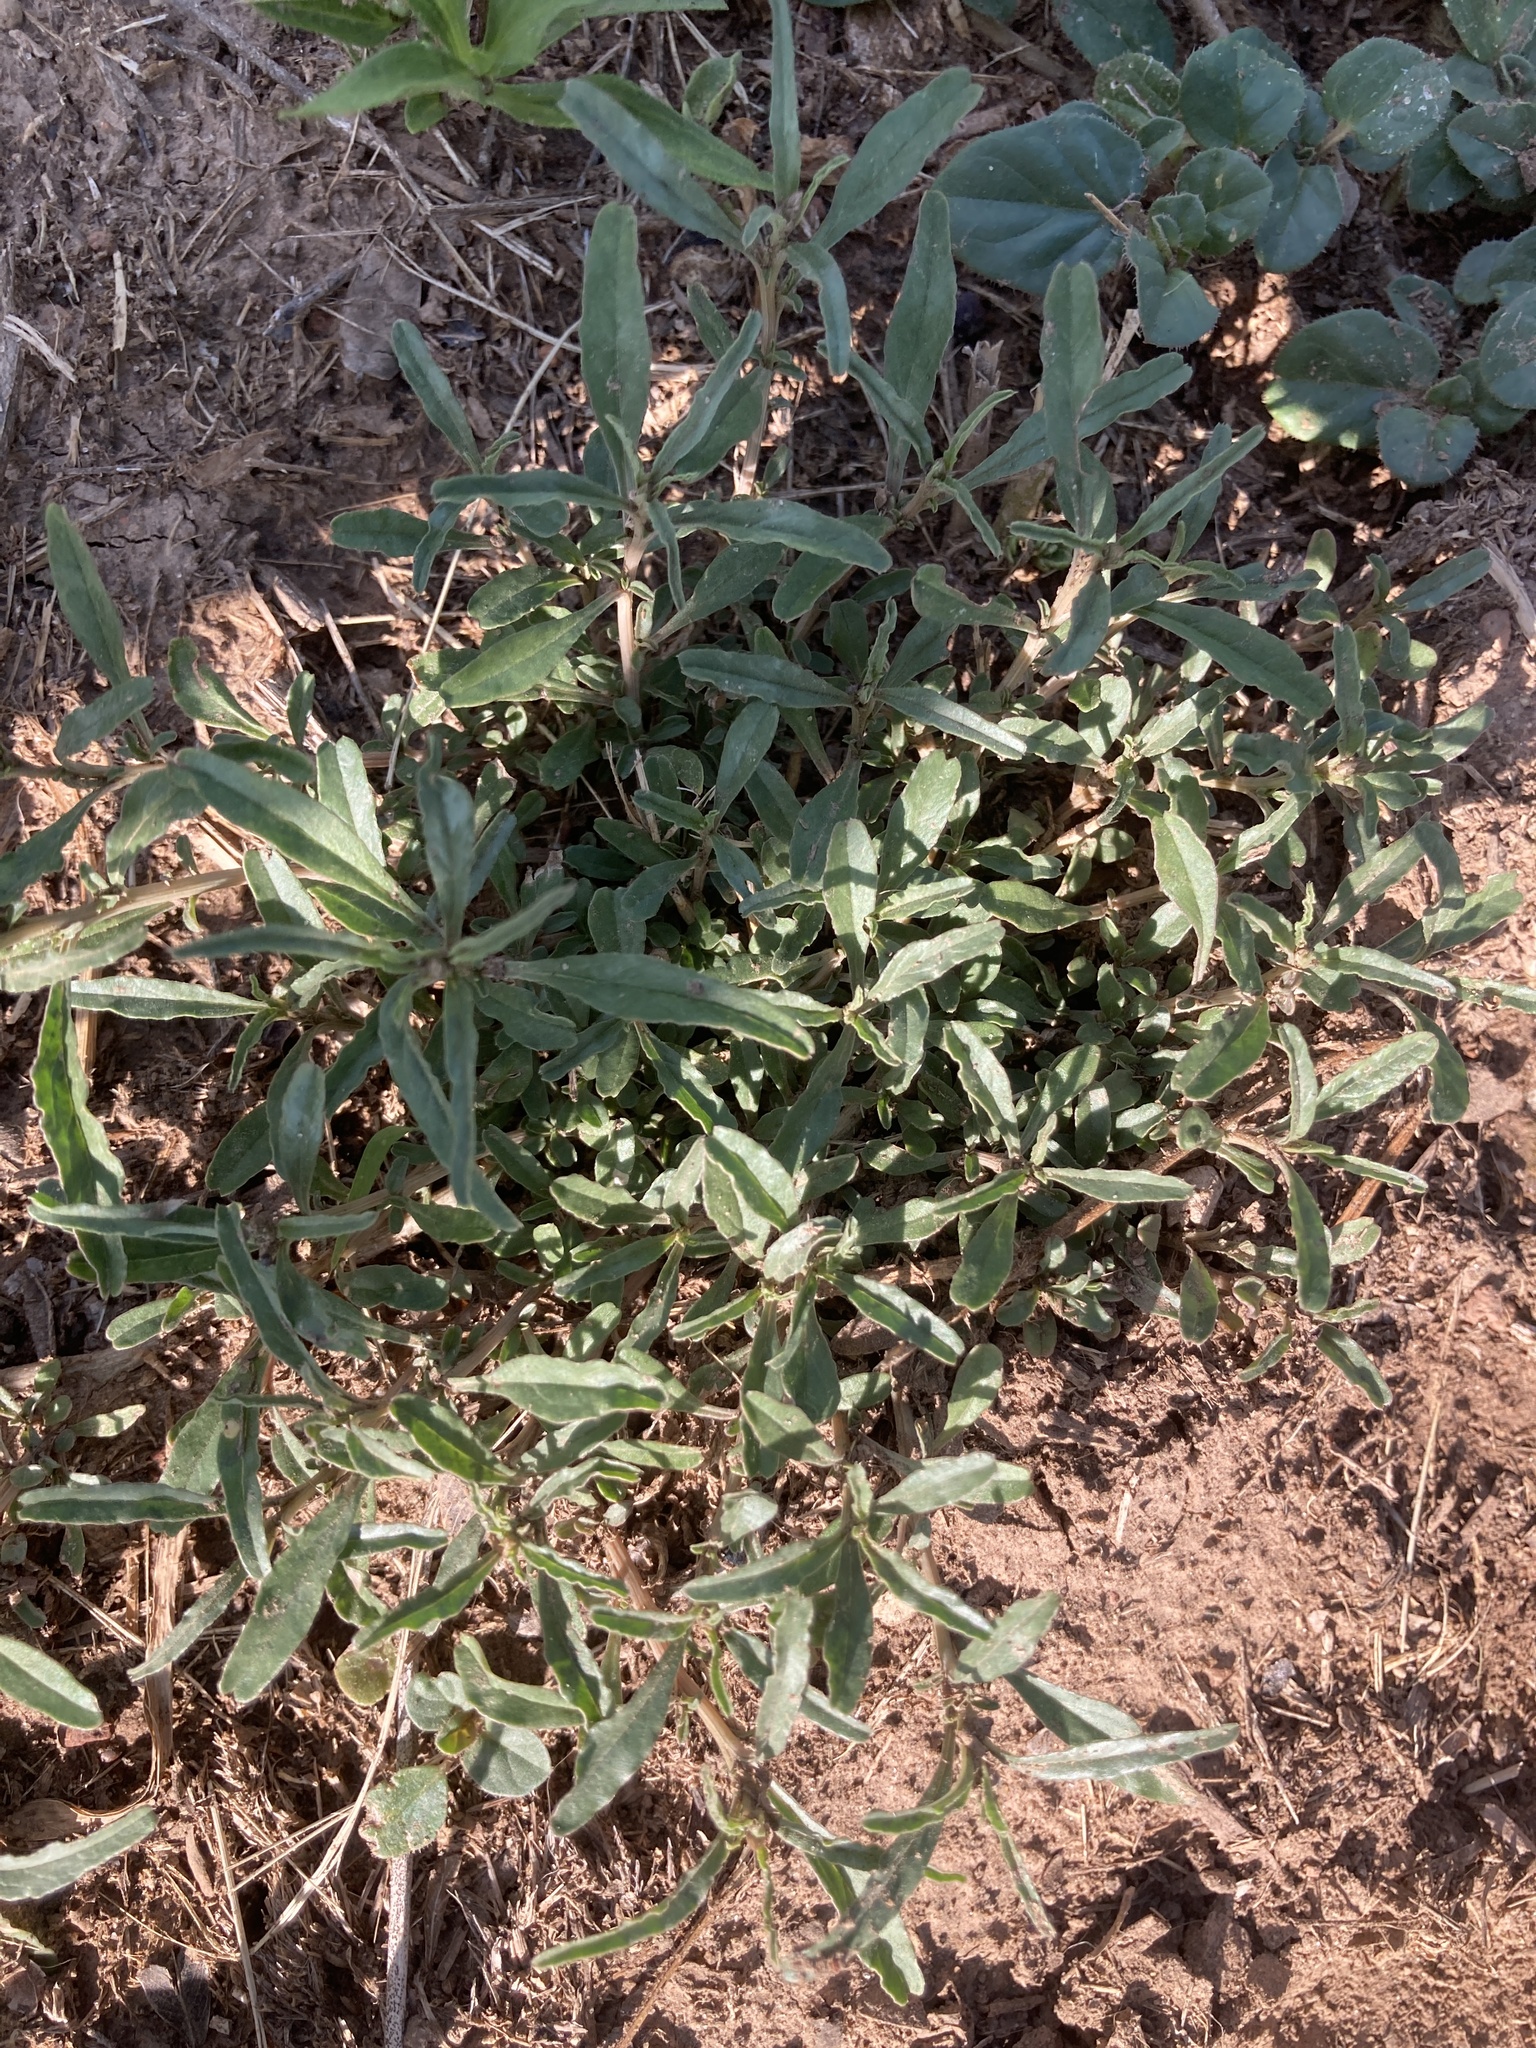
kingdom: Plantae
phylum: Tracheophyta
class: Magnoliopsida
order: Caryophyllales
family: Amaranthaceae
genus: Amaranthus
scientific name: Amaranthus muricatus
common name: African amaranth
